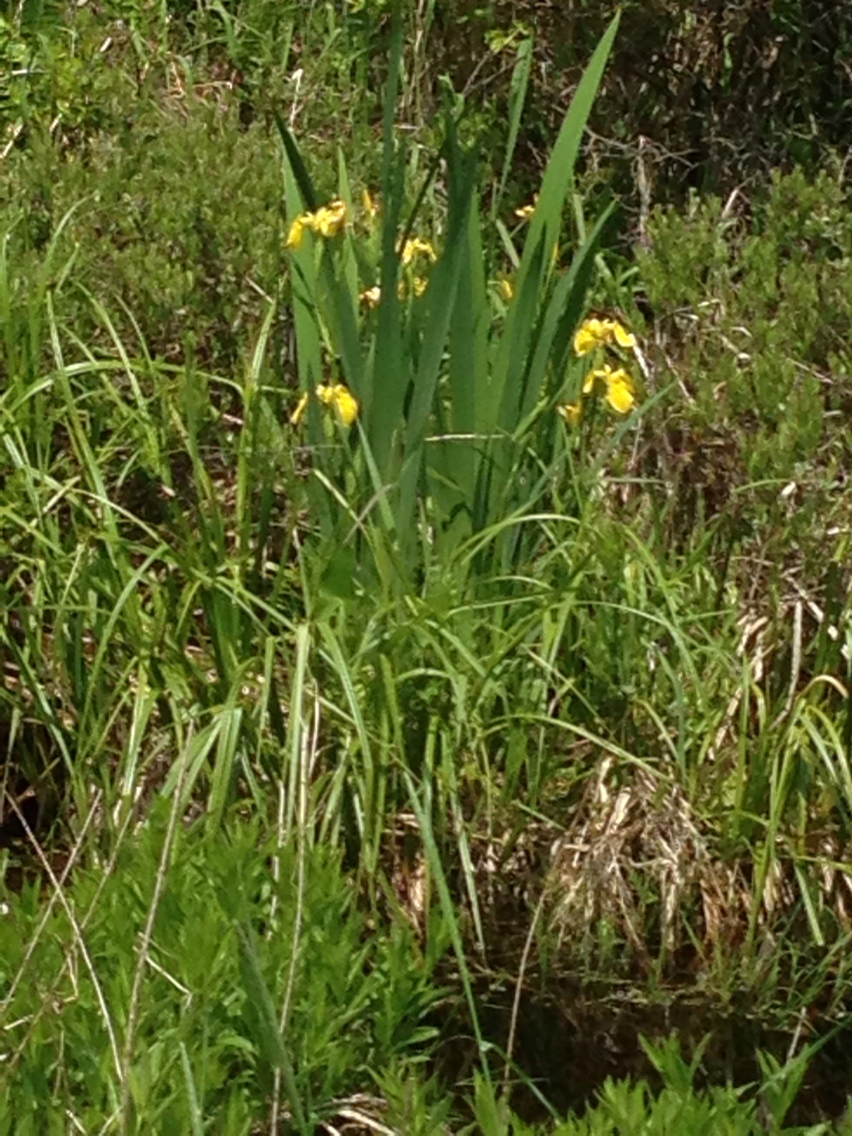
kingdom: Plantae
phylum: Tracheophyta
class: Liliopsida
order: Asparagales
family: Iridaceae
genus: Iris
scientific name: Iris pseudacorus
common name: Yellow flag
